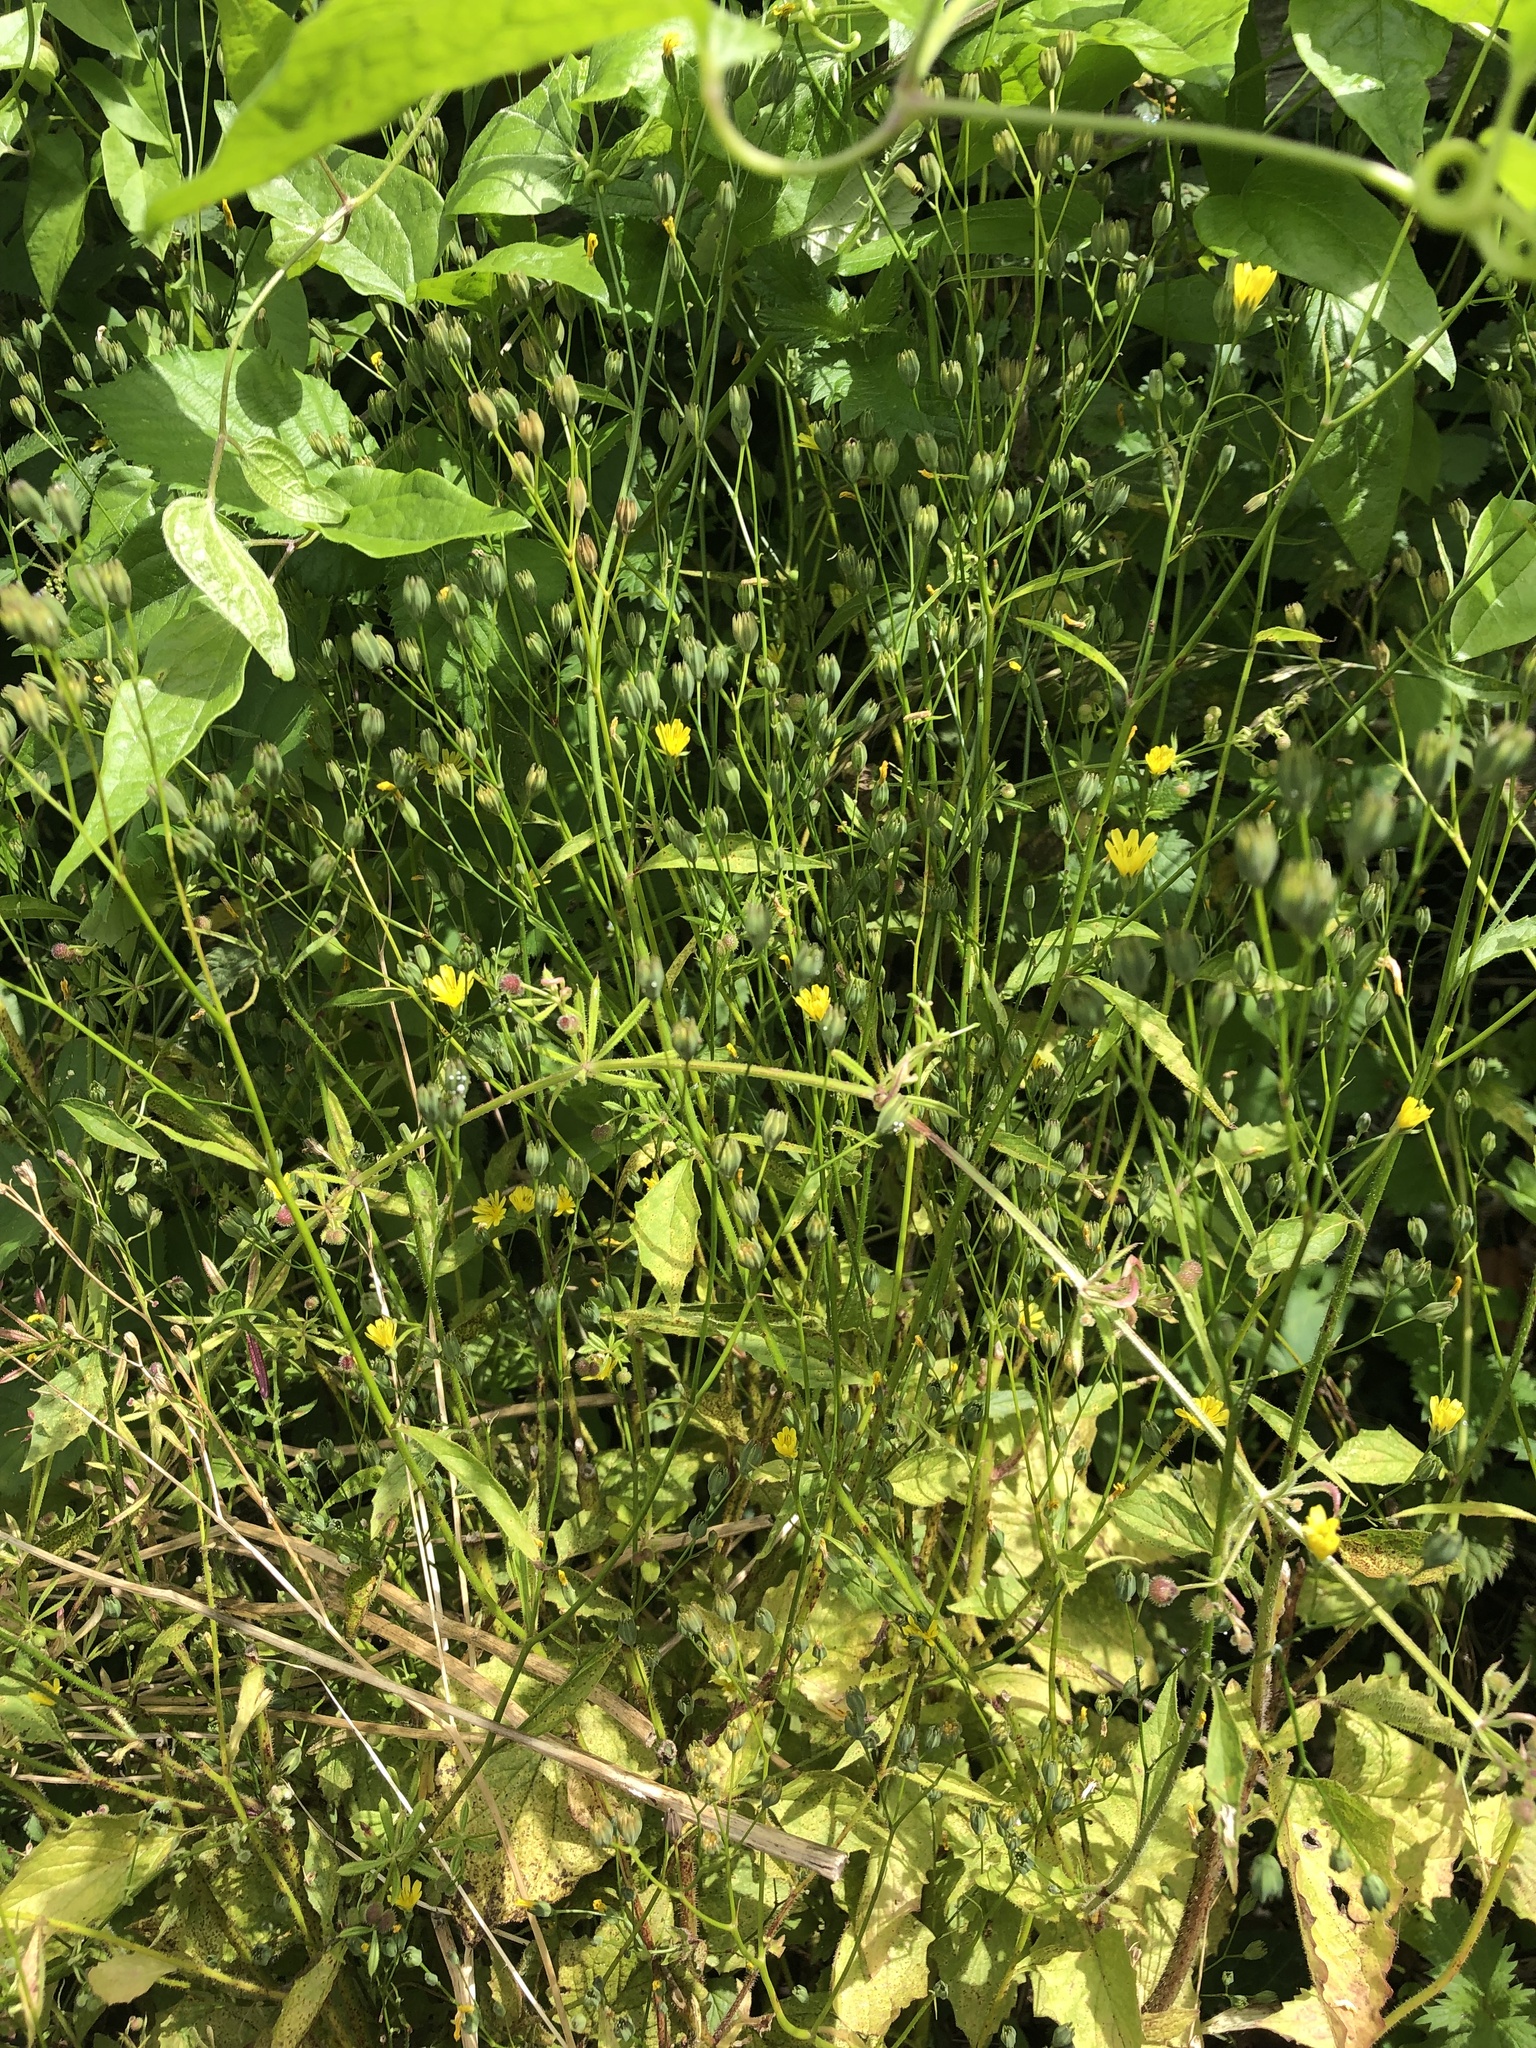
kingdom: Plantae
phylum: Tracheophyta
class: Magnoliopsida
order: Fabales
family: Fabaceae
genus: Trifolium
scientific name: Trifolium campestre
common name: Field clover
